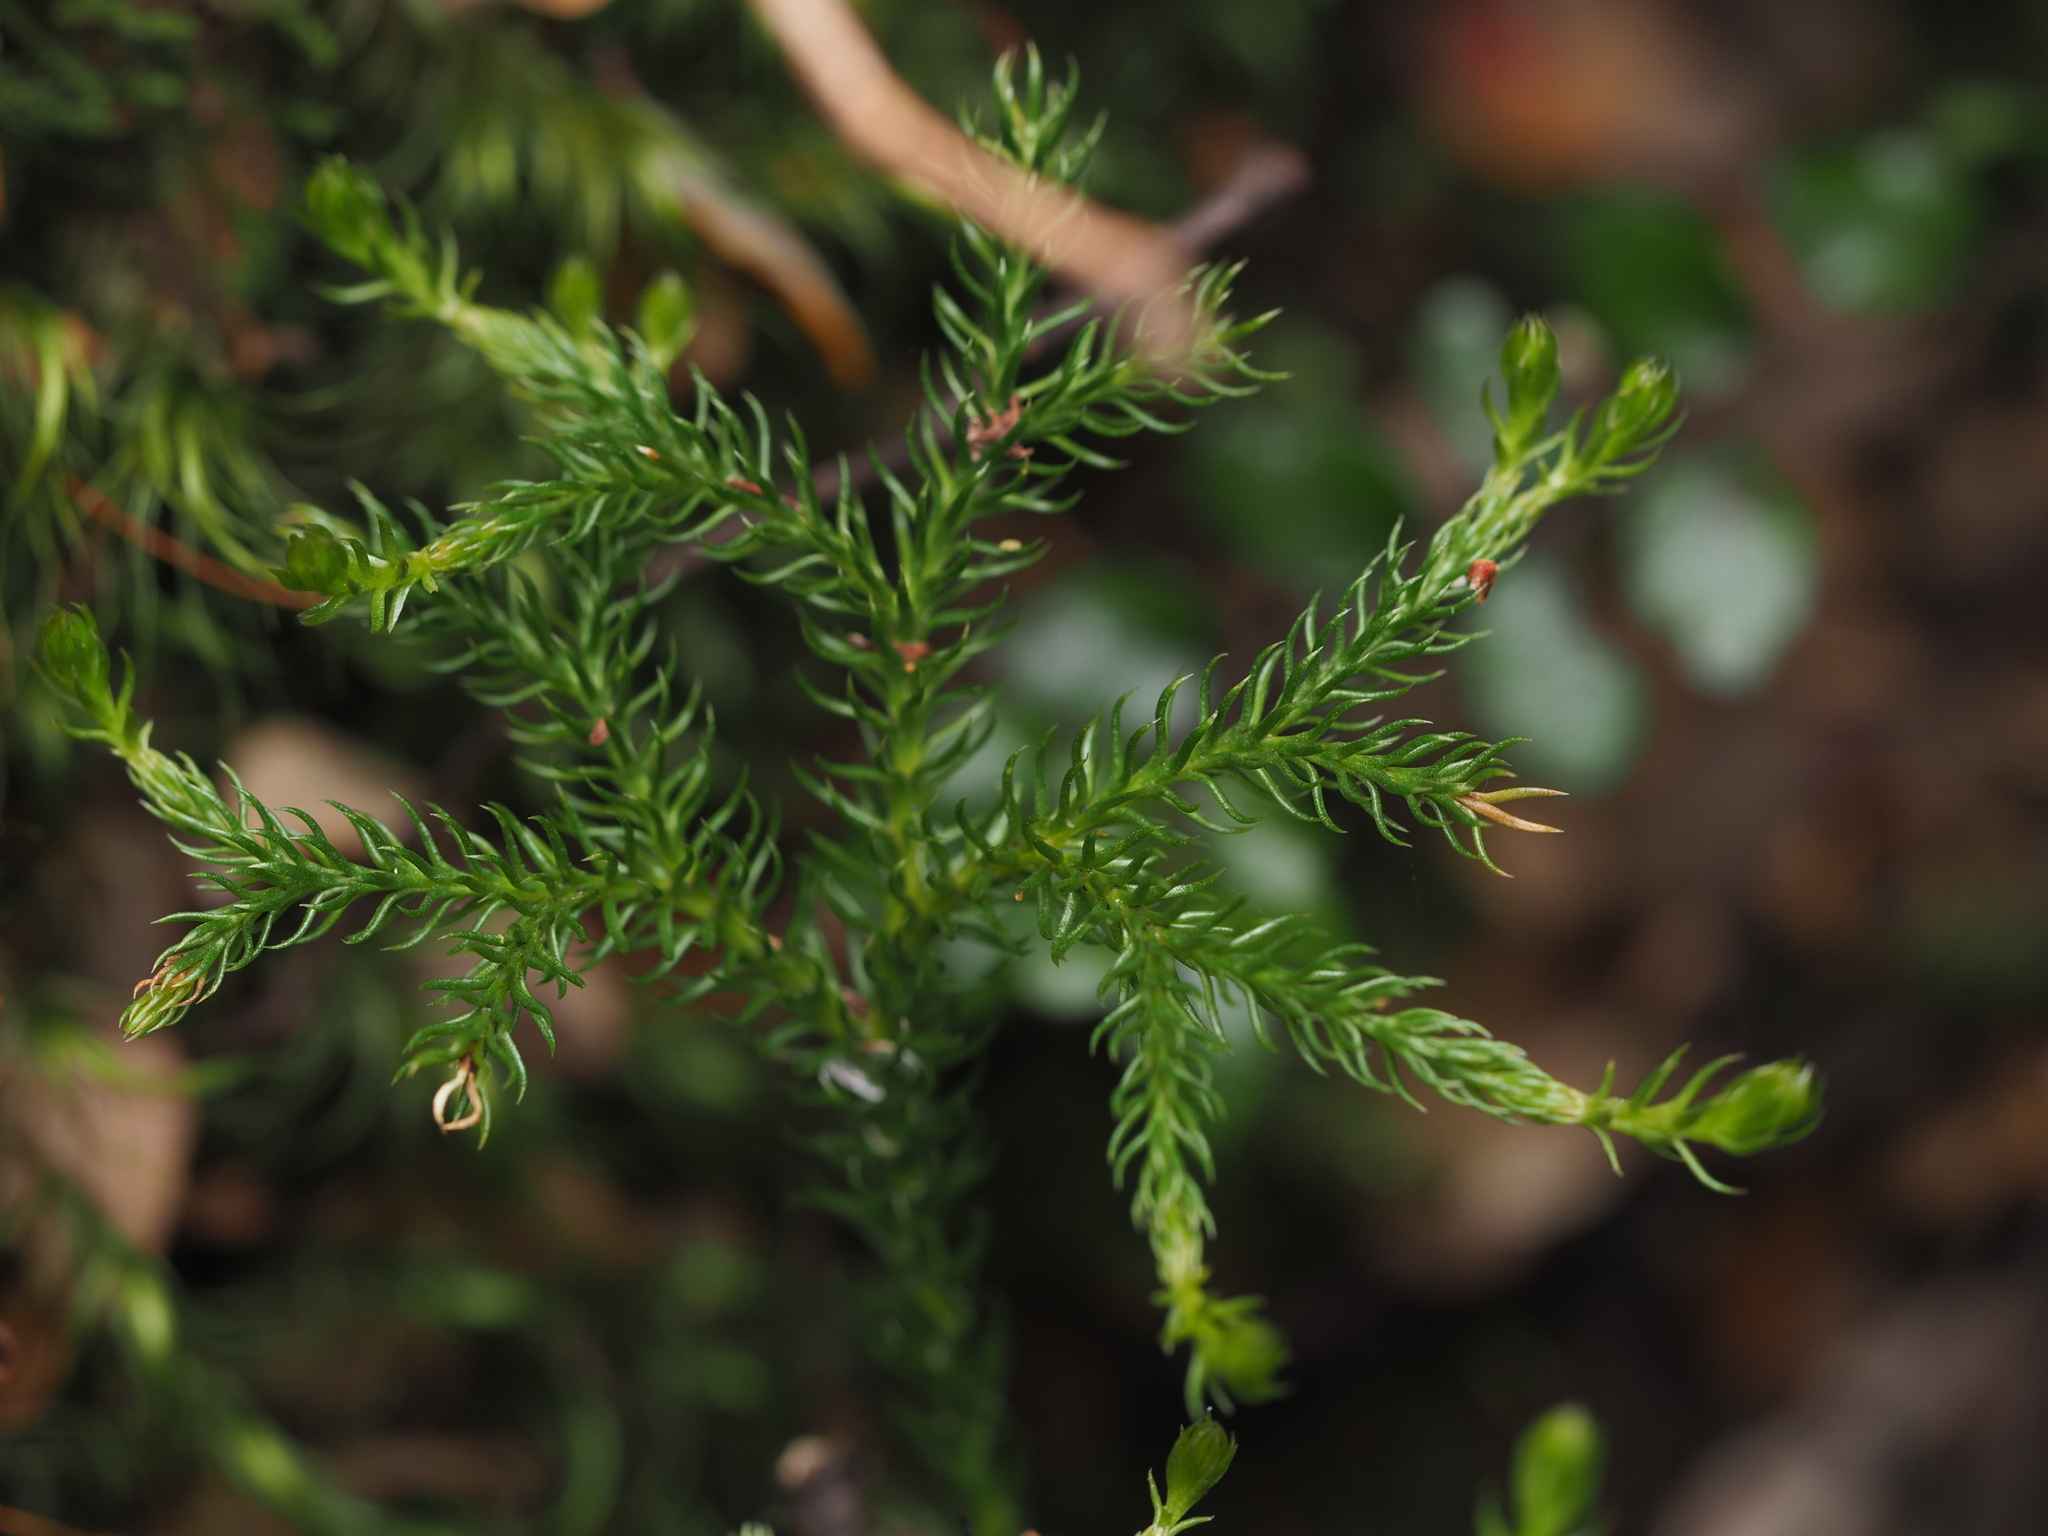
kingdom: Plantae
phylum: Tracheophyta
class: Lycopodiopsida
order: Lycopodiales
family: Lycopodiaceae
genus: Austrolycopodium
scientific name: Austrolycopodium fastigiatum
